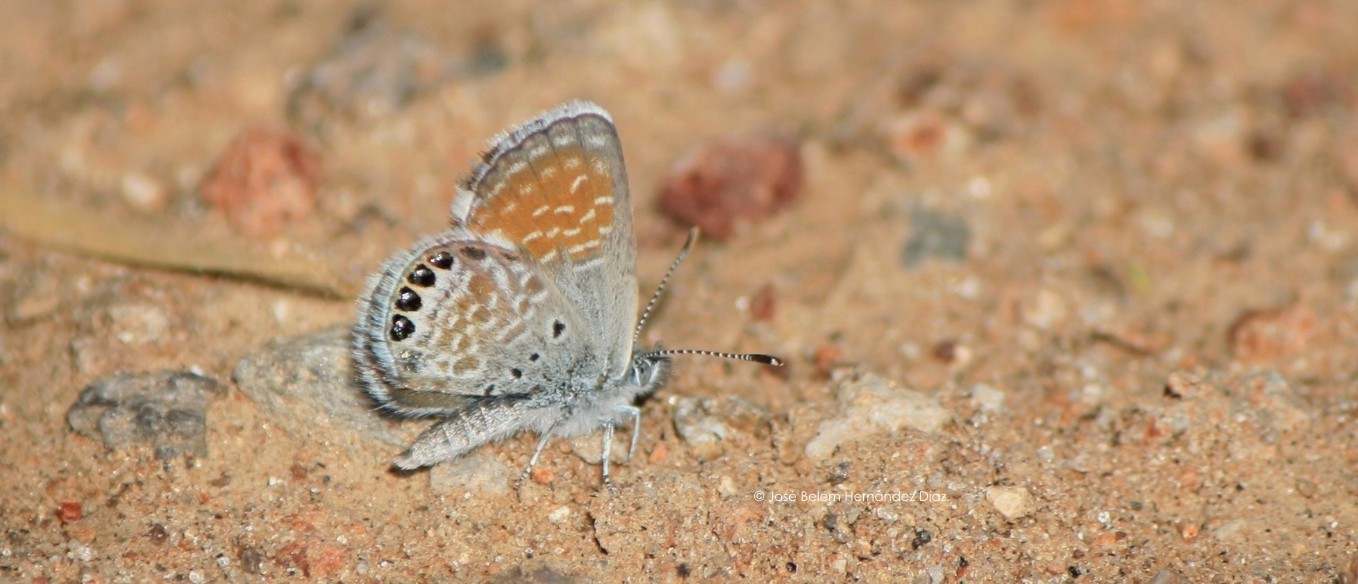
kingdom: Animalia
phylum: Arthropoda
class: Insecta
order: Lepidoptera
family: Lycaenidae
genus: Brephidium
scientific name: Brephidium exilis
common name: Pygmy blue
